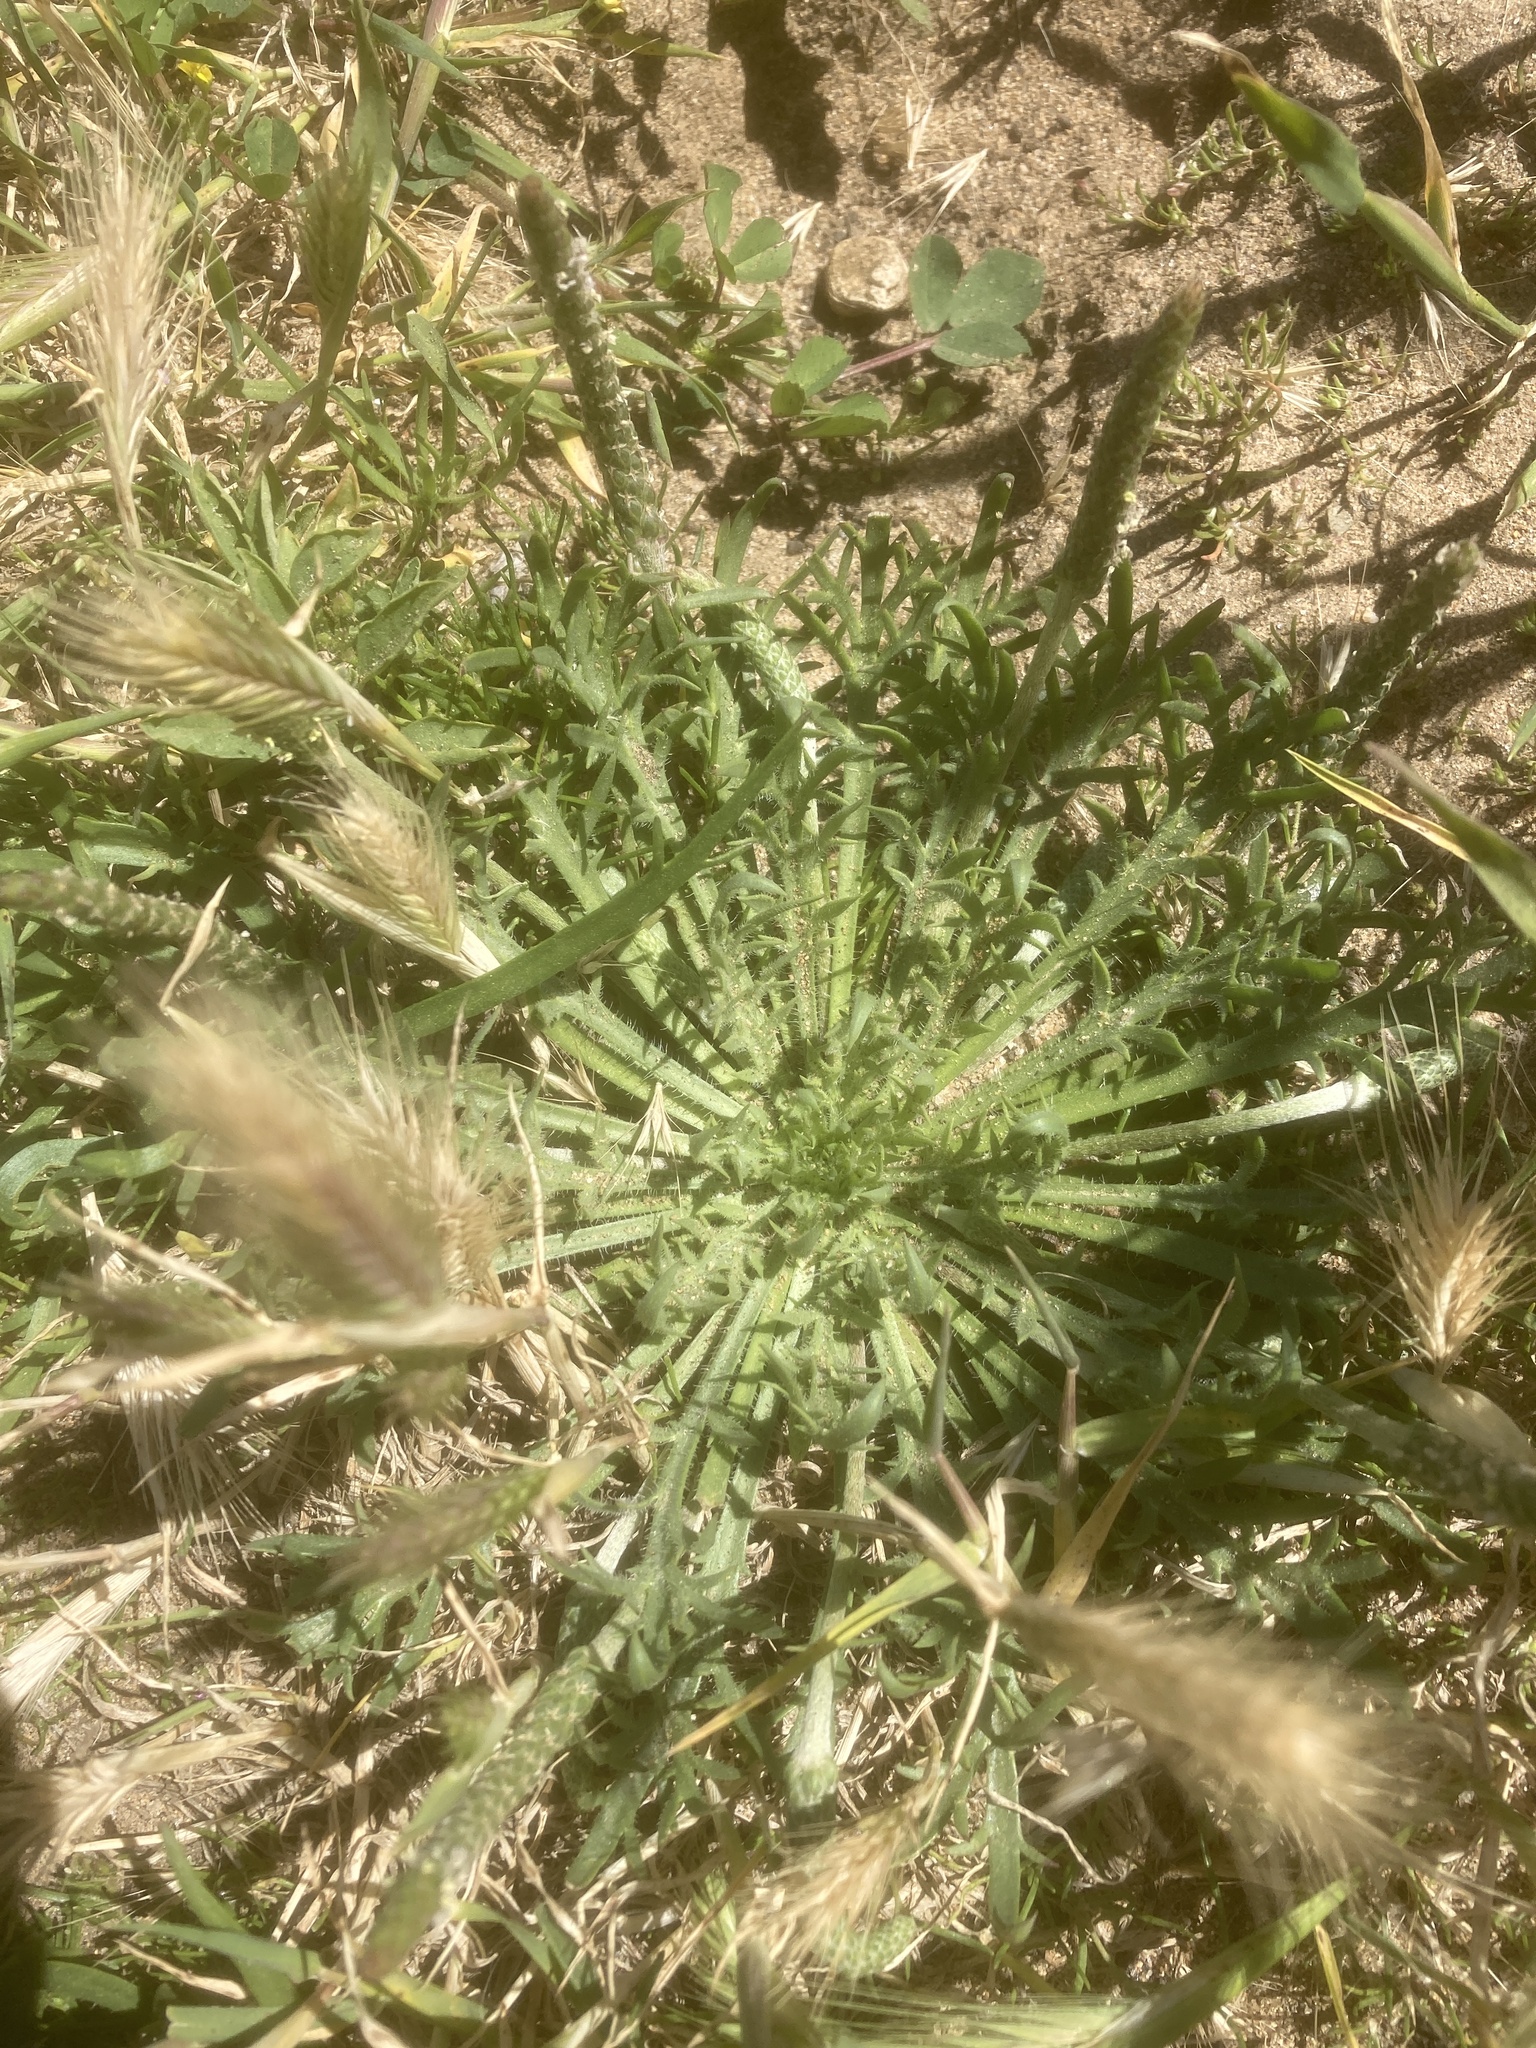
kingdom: Plantae
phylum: Tracheophyta
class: Magnoliopsida
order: Lamiales
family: Plantaginaceae
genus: Plantago
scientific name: Plantago coronopus
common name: Buck's-horn plantain
